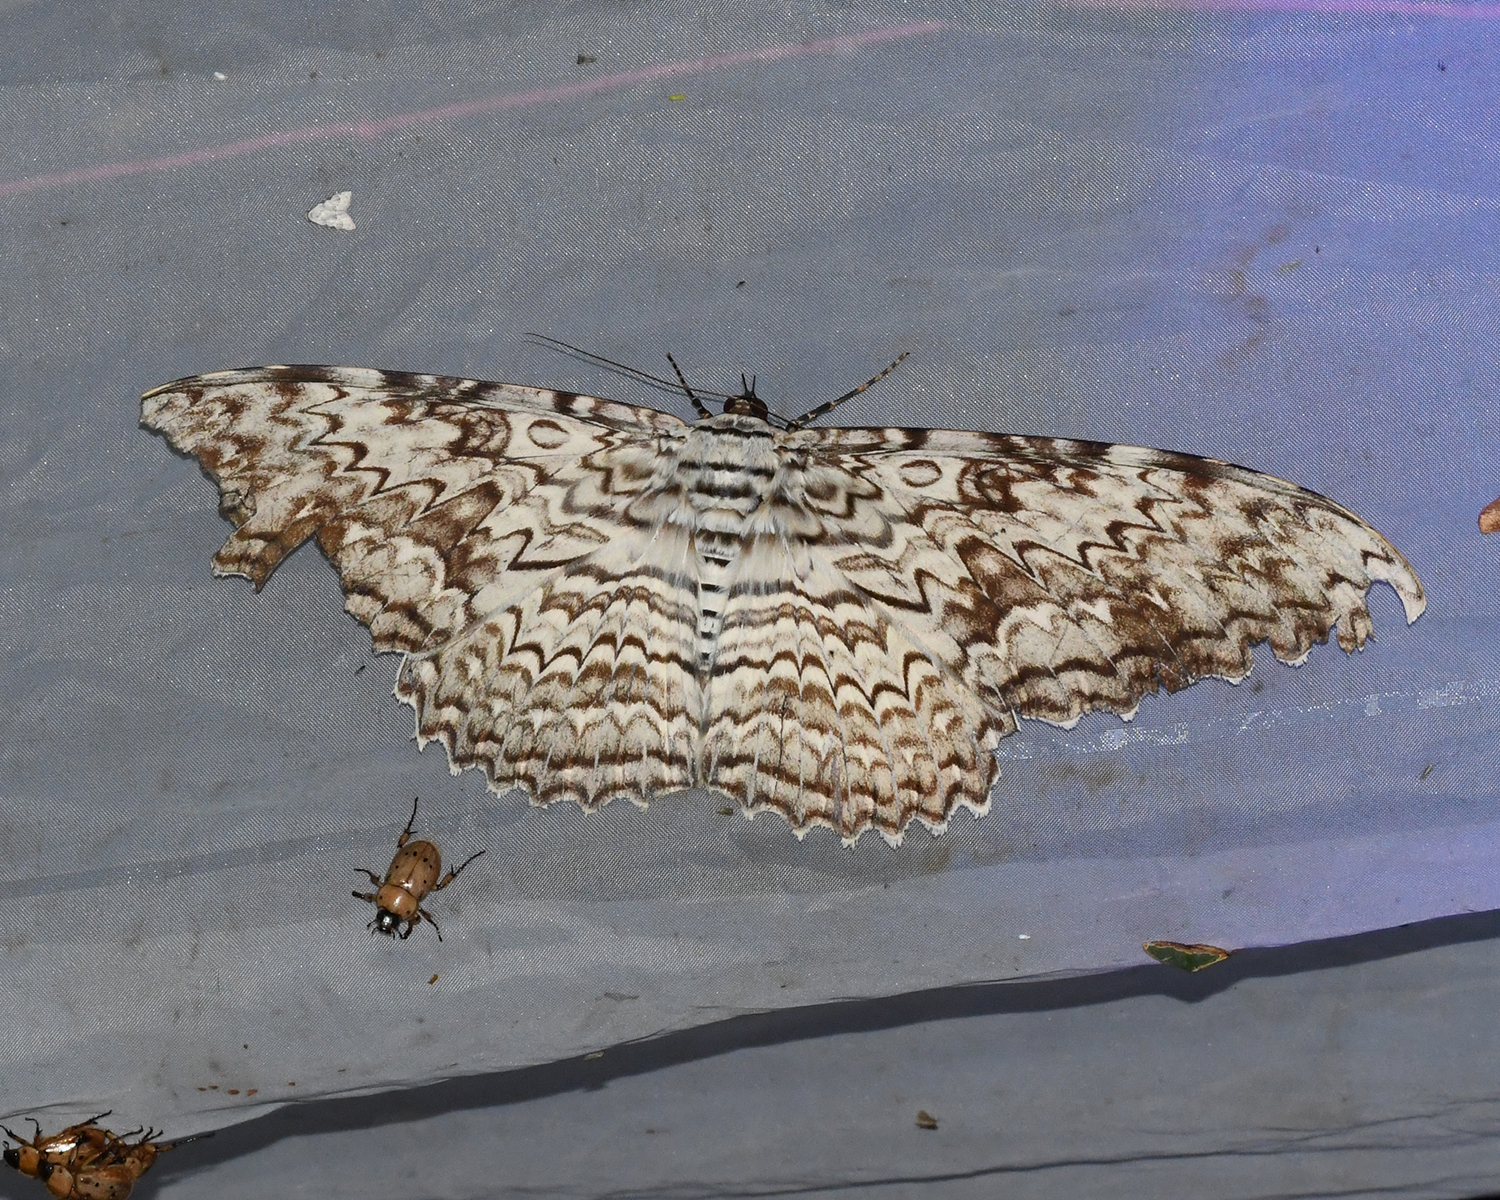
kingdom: Animalia
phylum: Arthropoda
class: Insecta
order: Lepidoptera
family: Erebidae
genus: Thysania
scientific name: Thysania agrippina
